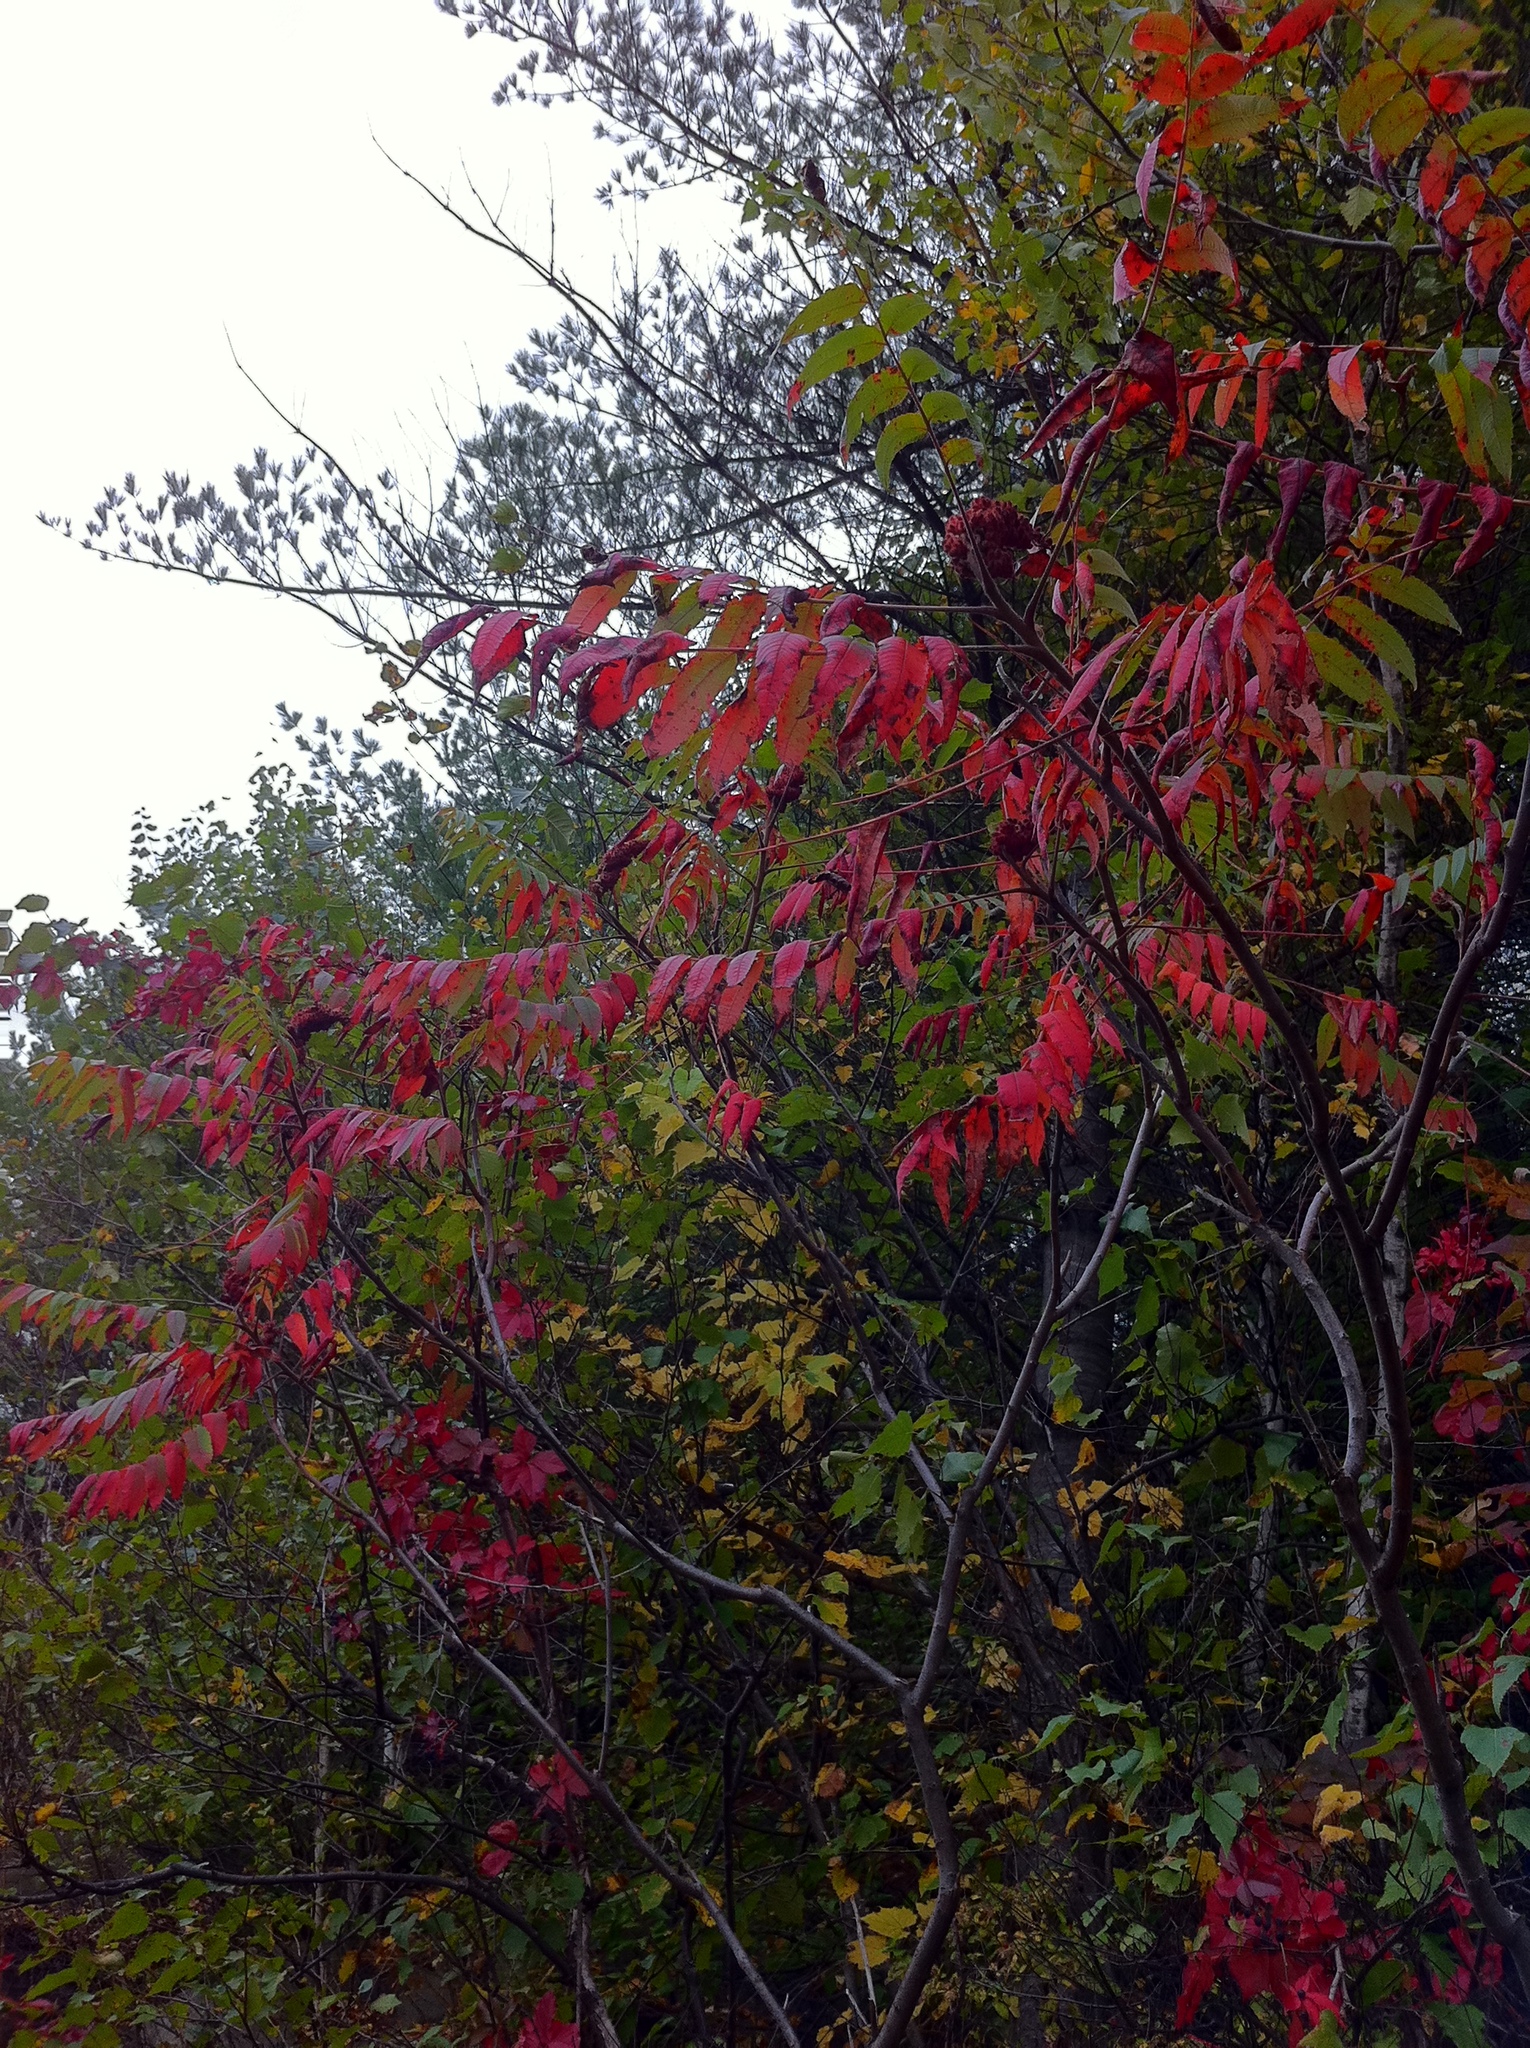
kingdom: Plantae
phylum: Tracheophyta
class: Magnoliopsida
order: Sapindales
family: Anacardiaceae
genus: Rhus
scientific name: Rhus typhina
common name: Staghorn sumac
